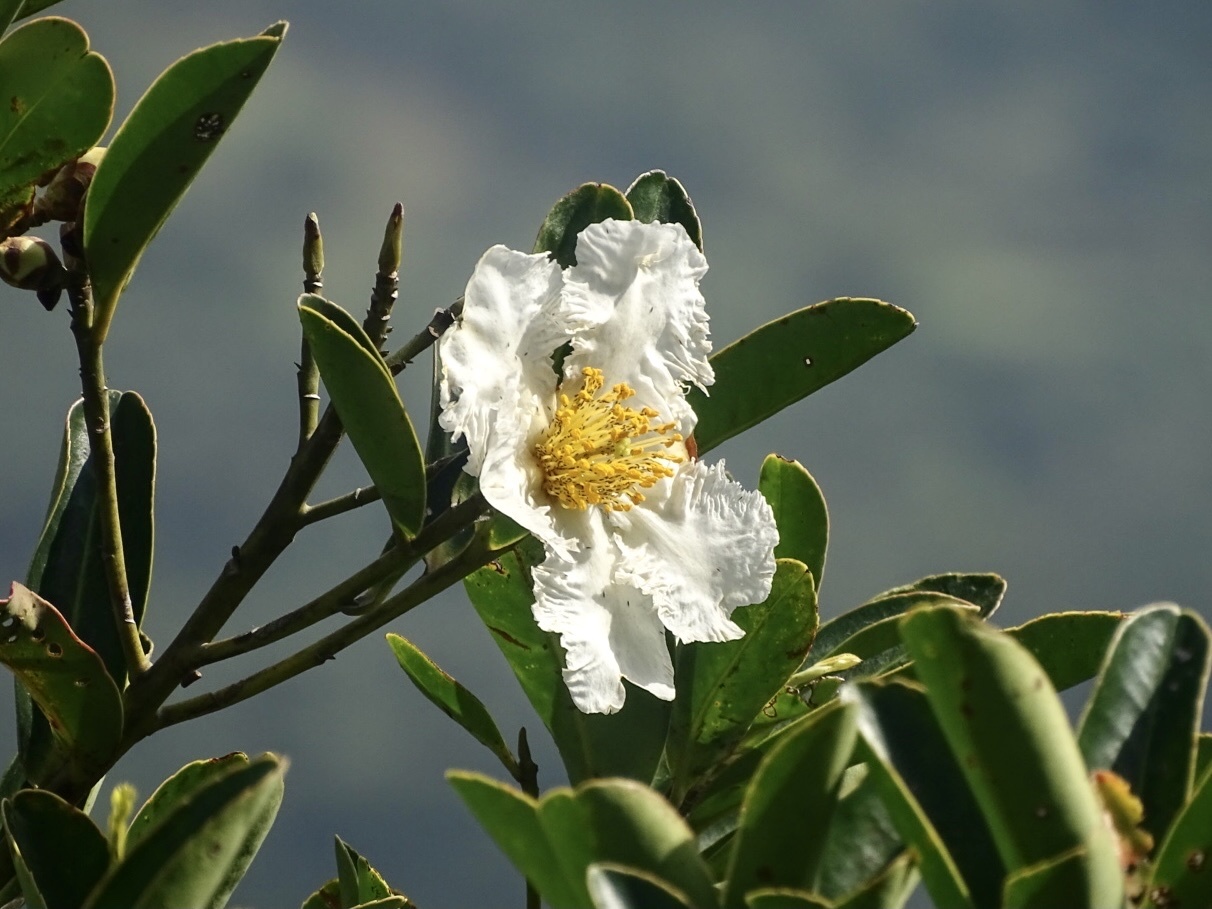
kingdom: Plantae
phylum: Tracheophyta
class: Magnoliopsida
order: Ericales
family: Theaceae
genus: Polyspora
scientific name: Polyspora axillaris
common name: Fried egg tree
